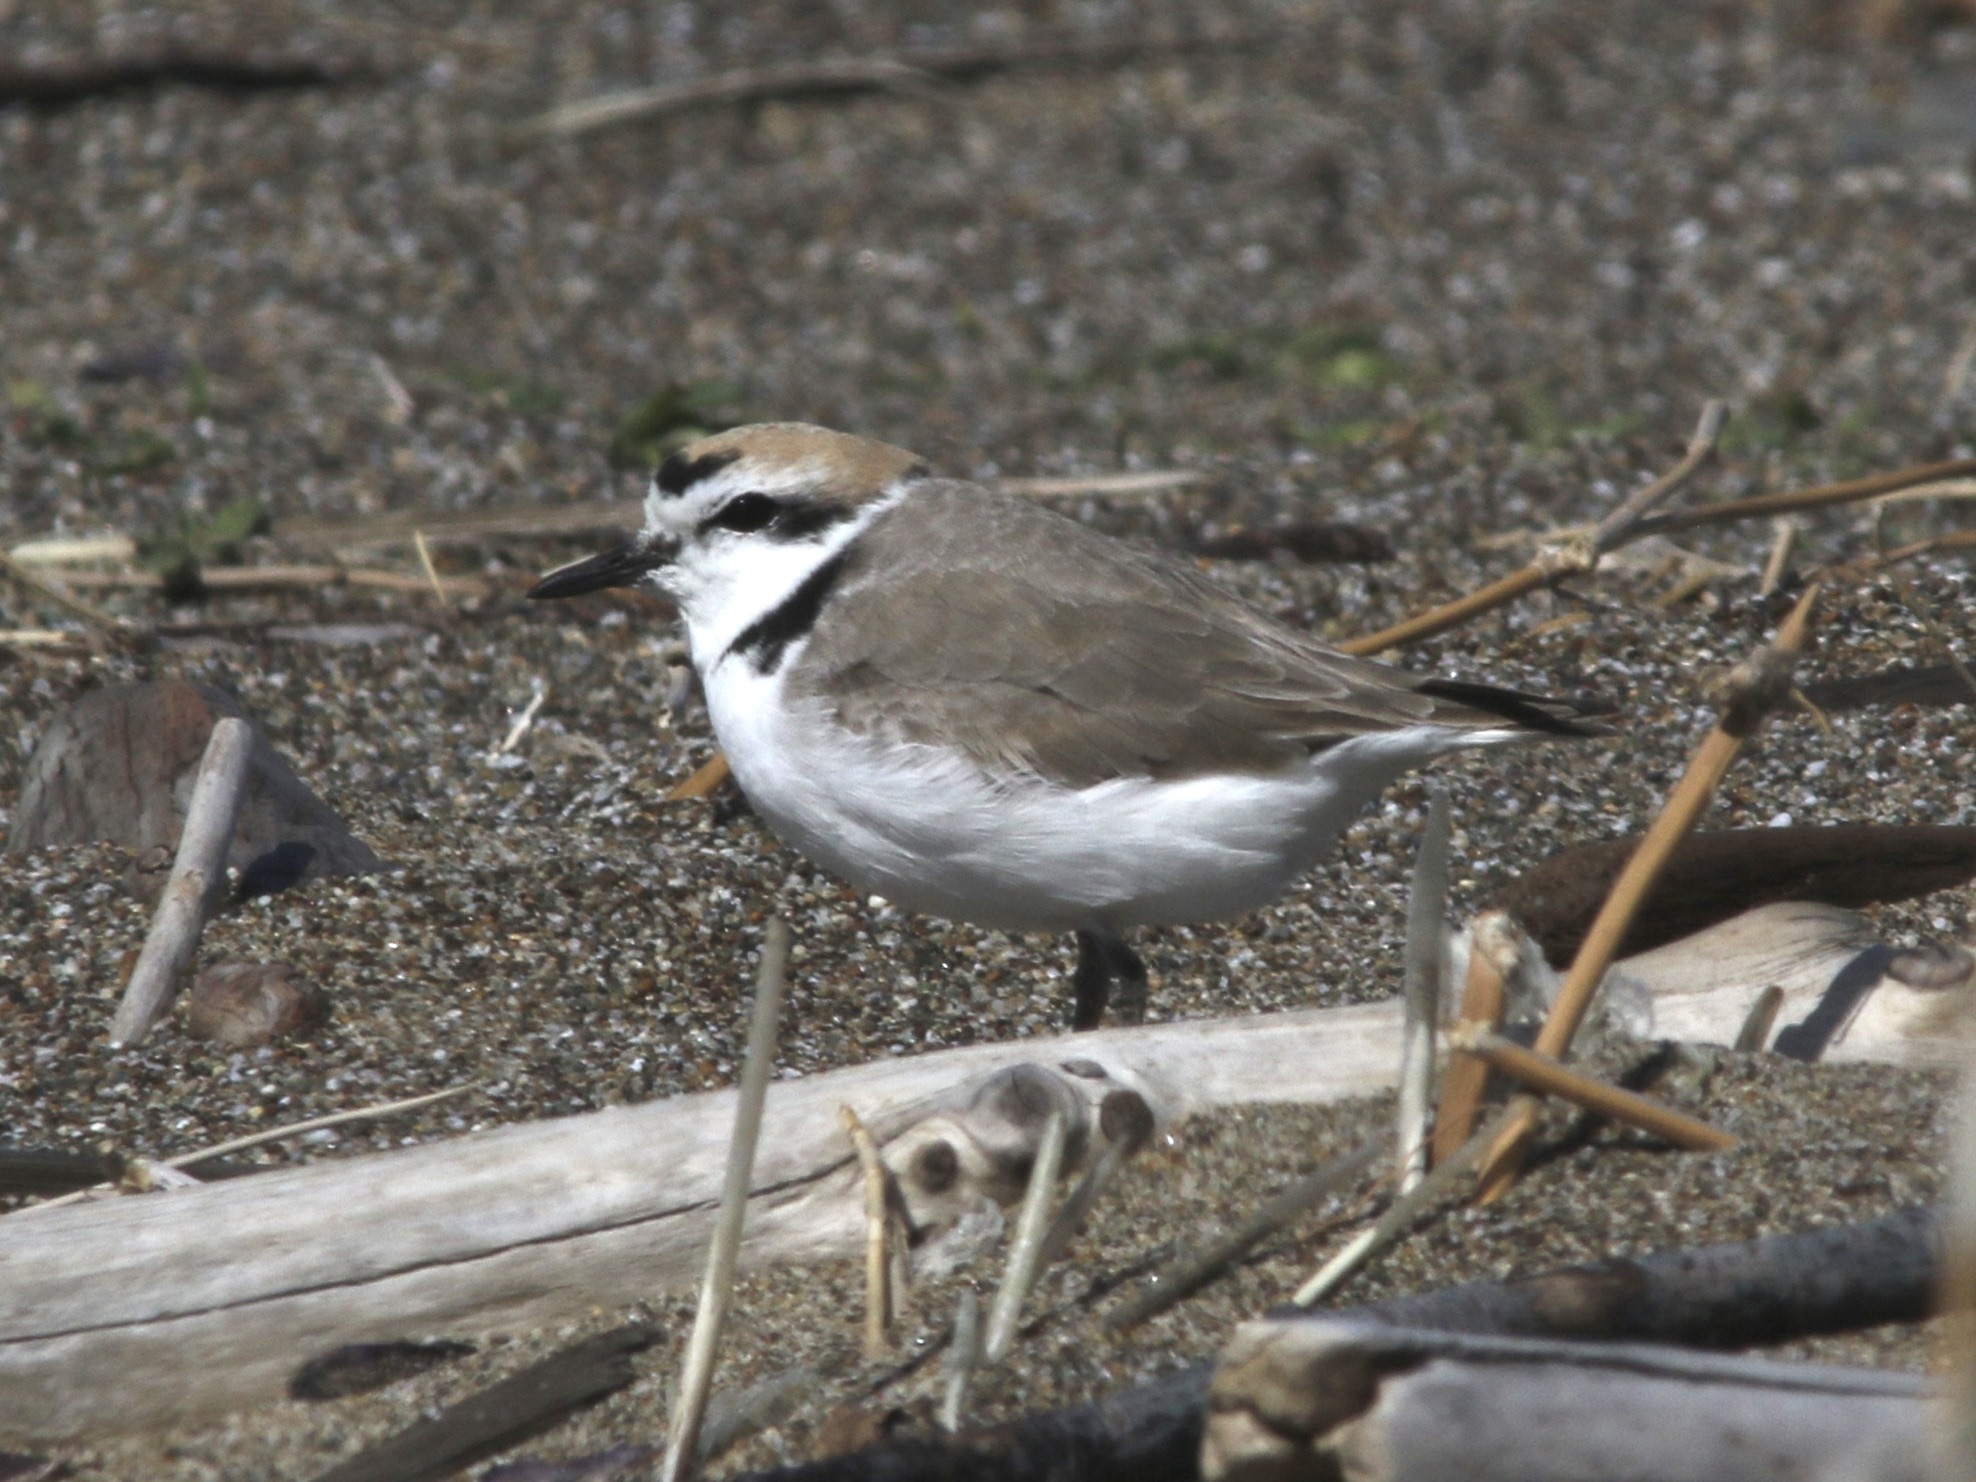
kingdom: Animalia
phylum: Chordata
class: Aves
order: Charadriiformes
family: Charadriidae
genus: Anarhynchus
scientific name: Anarhynchus
